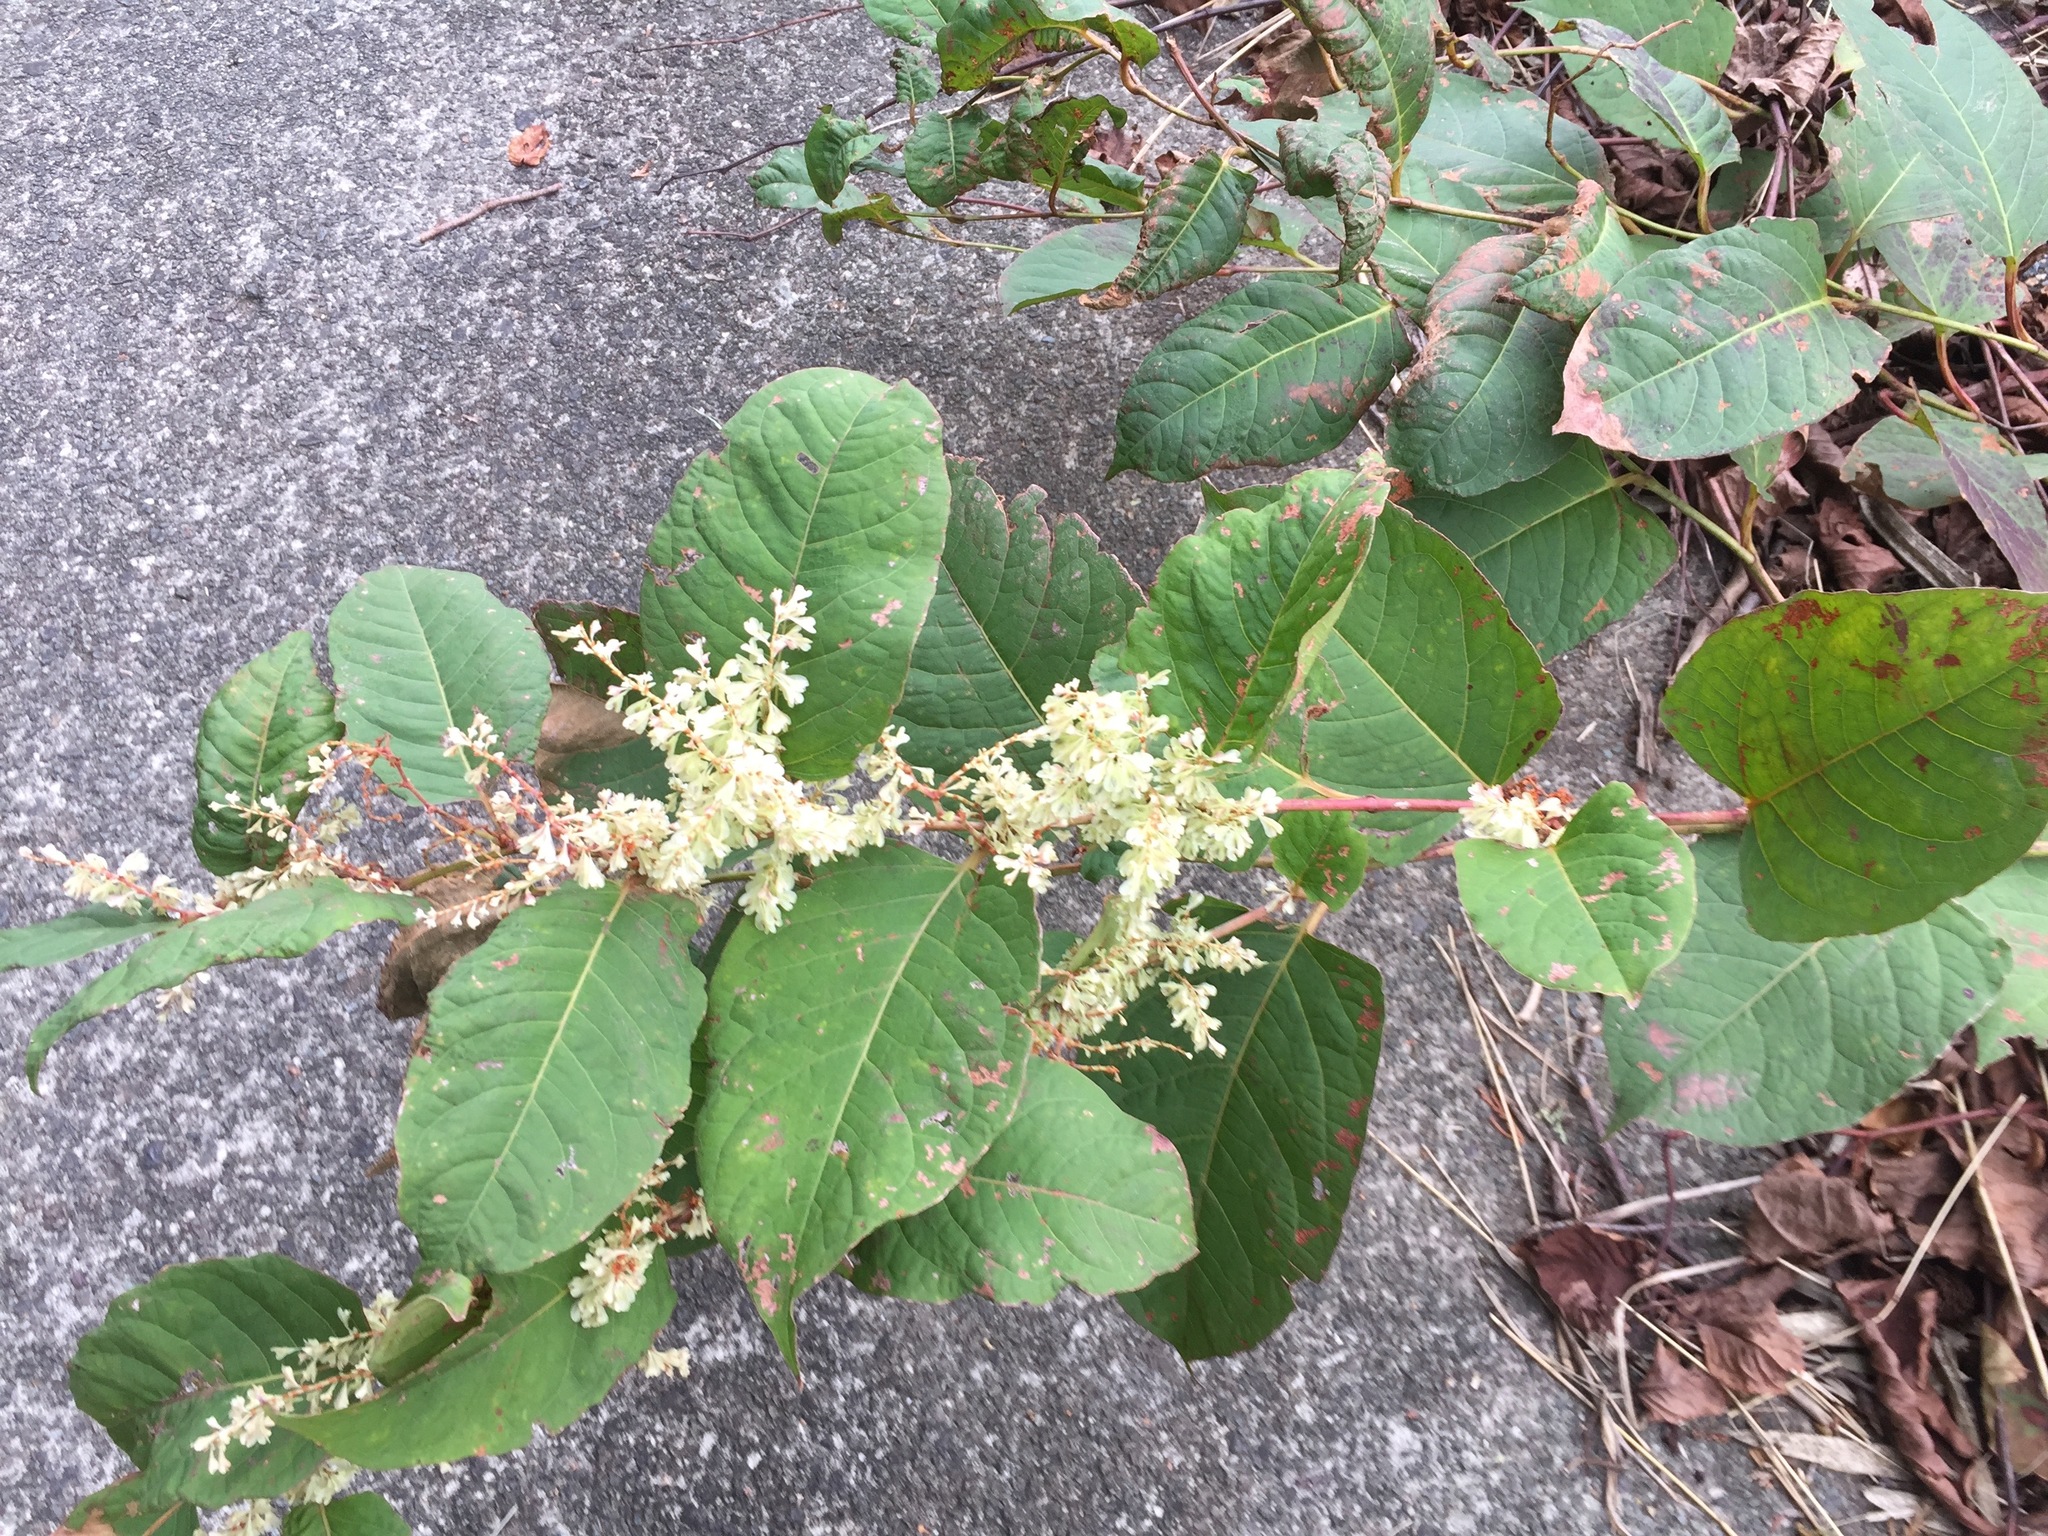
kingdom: Plantae
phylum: Tracheophyta
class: Magnoliopsida
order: Caryophyllales
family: Polygonaceae
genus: Reynoutria
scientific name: Reynoutria japonica
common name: Japanese knotweed
